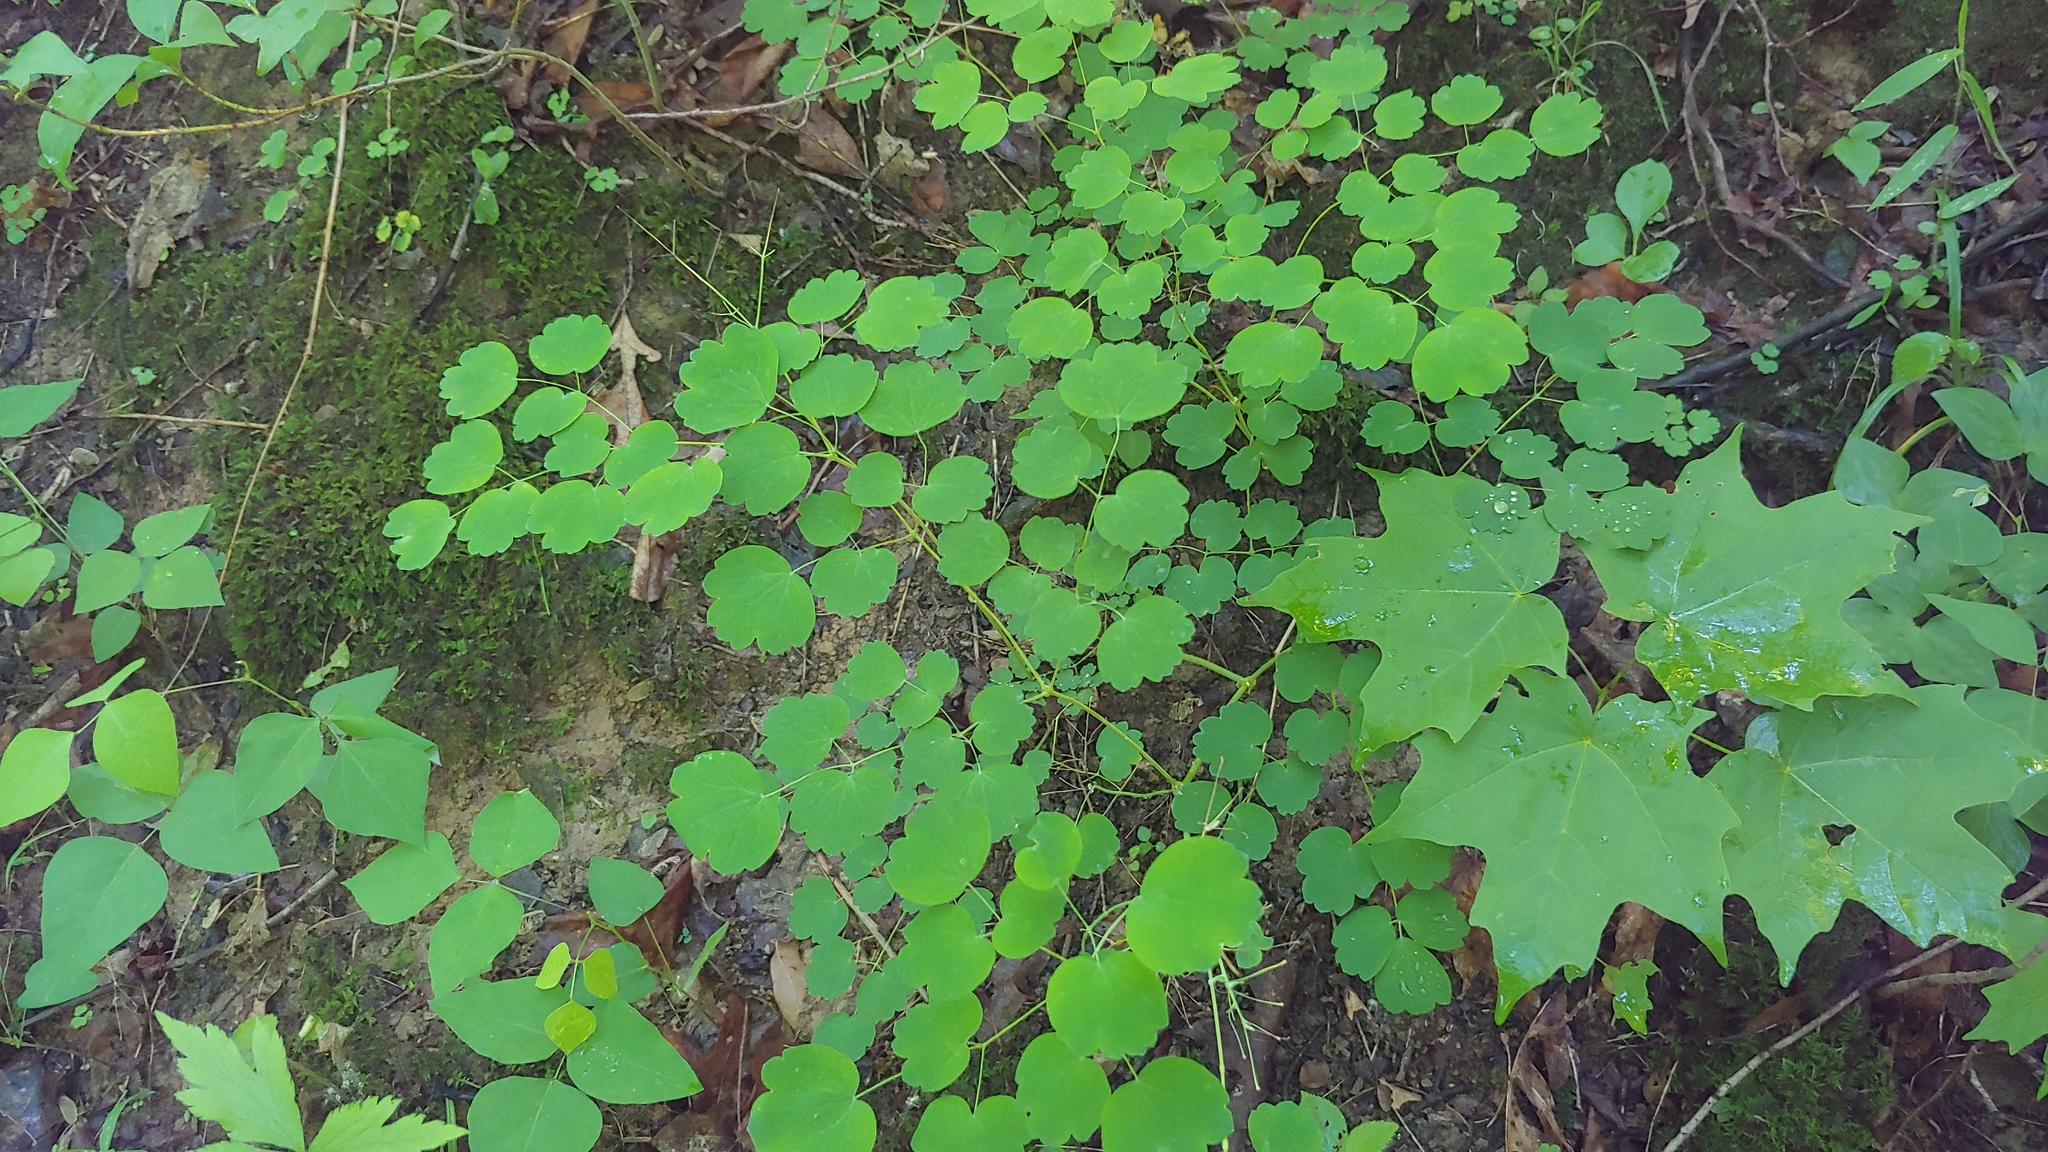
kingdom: Plantae
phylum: Tracheophyta
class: Magnoliopsida
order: Ranunculales
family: Ranunculaceae
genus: Thalictrum
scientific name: Thalictrum dioicum
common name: Early meadow-rue
